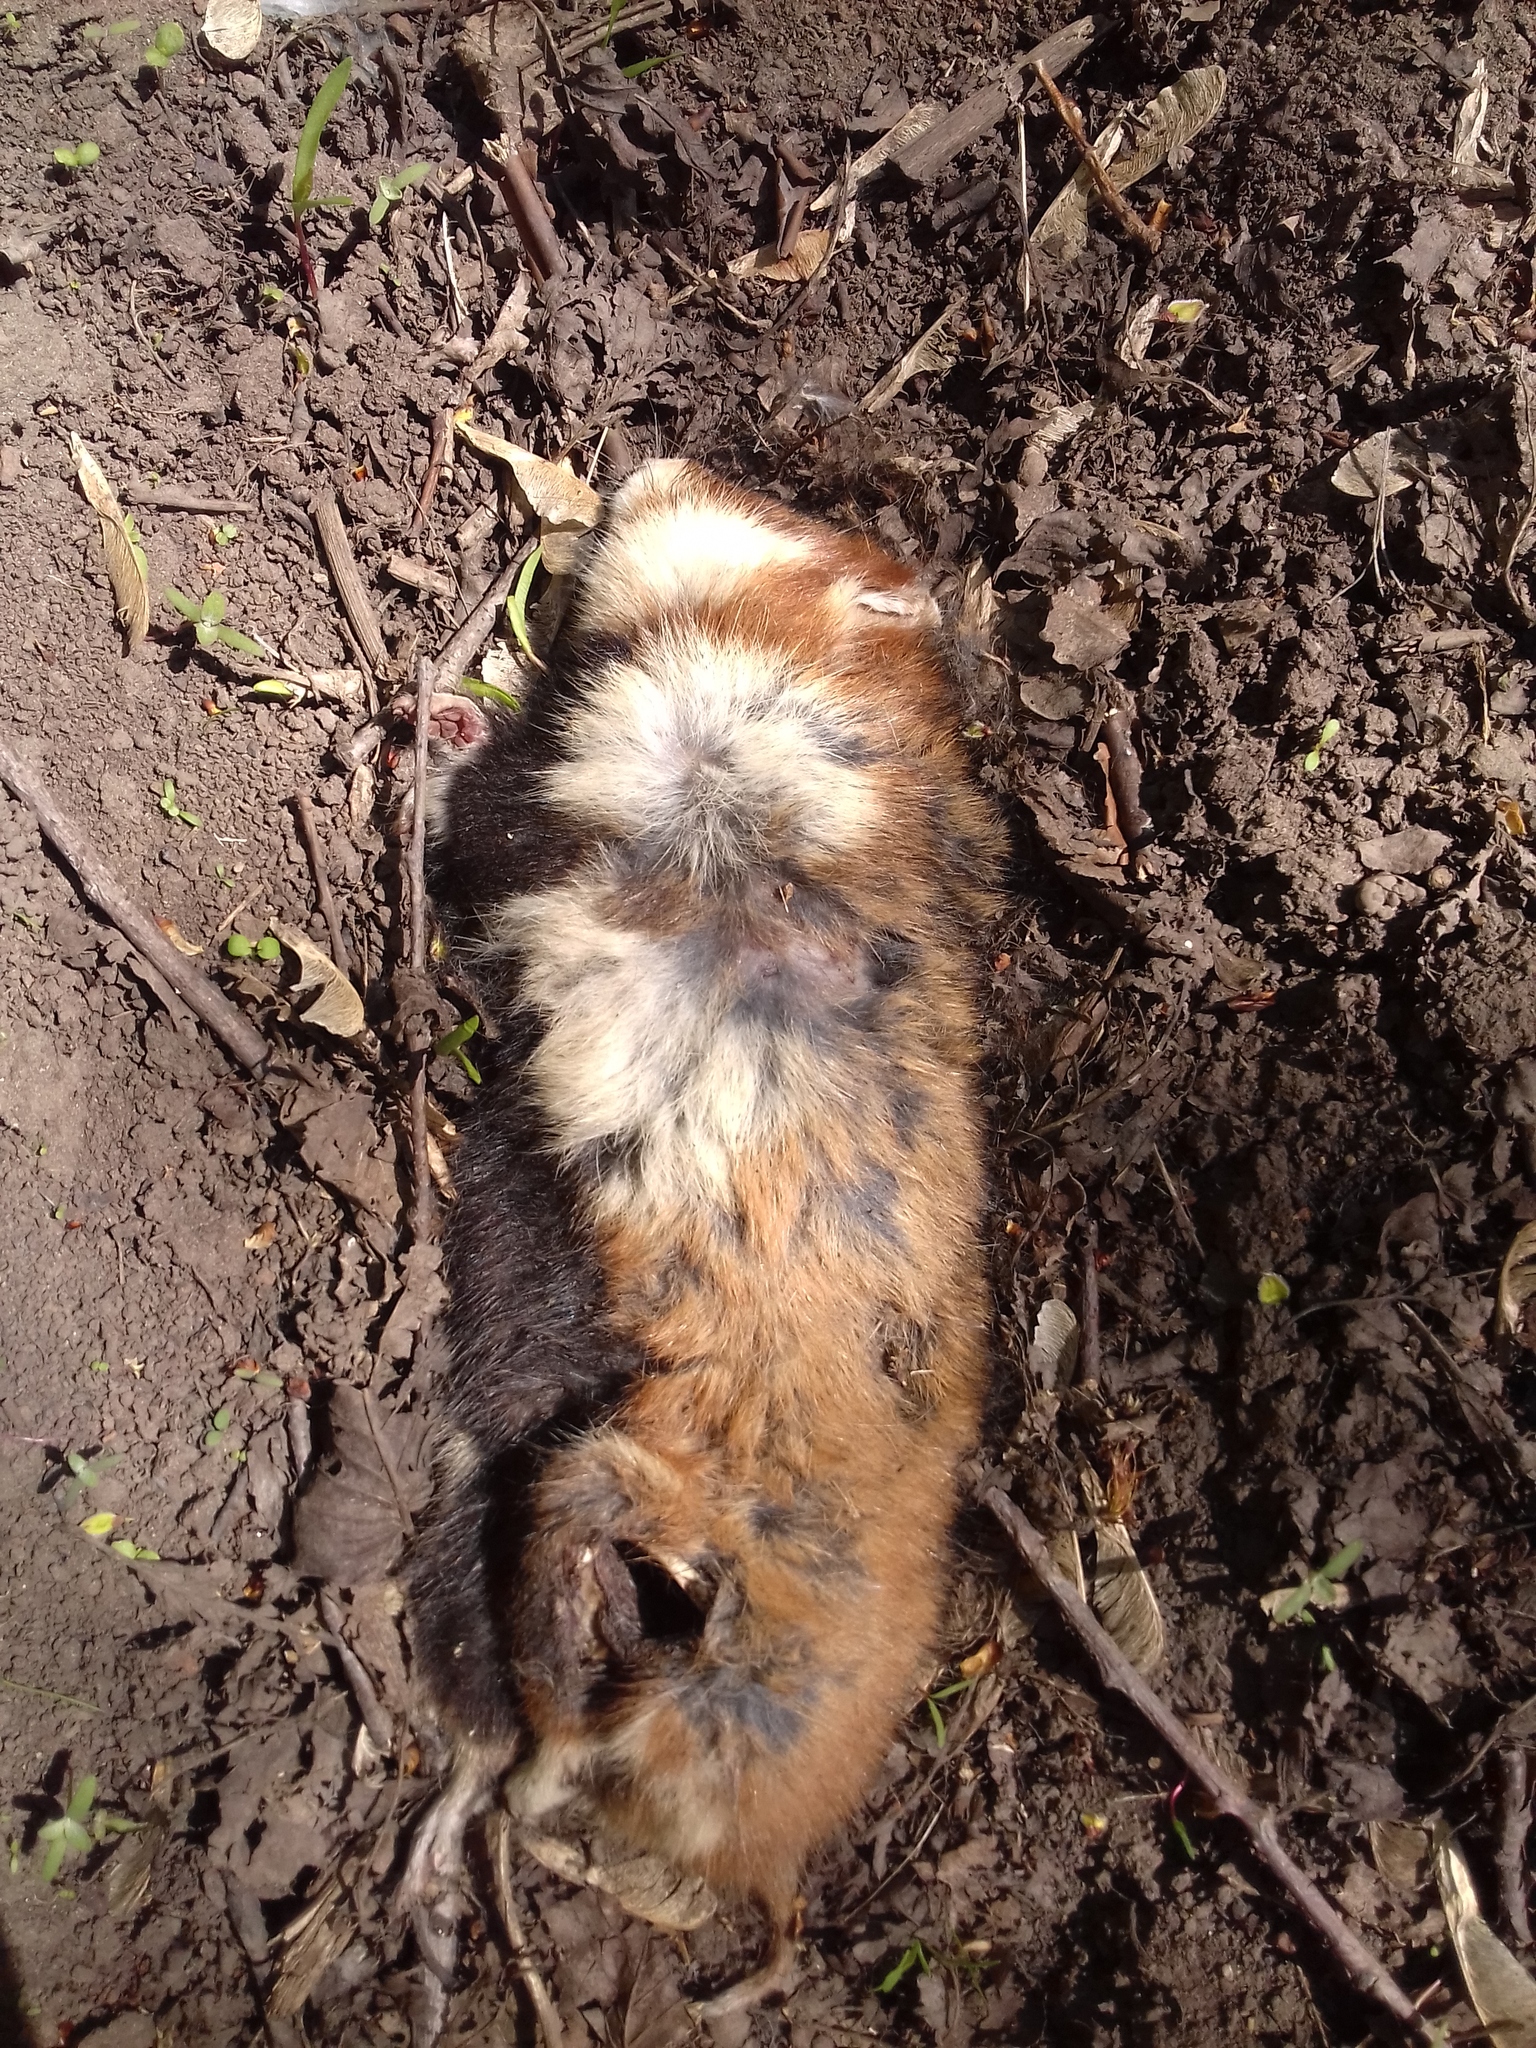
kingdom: Animalia
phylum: Chordata
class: Mammalia
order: Rodentia
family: Cricetidae
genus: Cricetus
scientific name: Cricetus cricetus
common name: Common hamster
